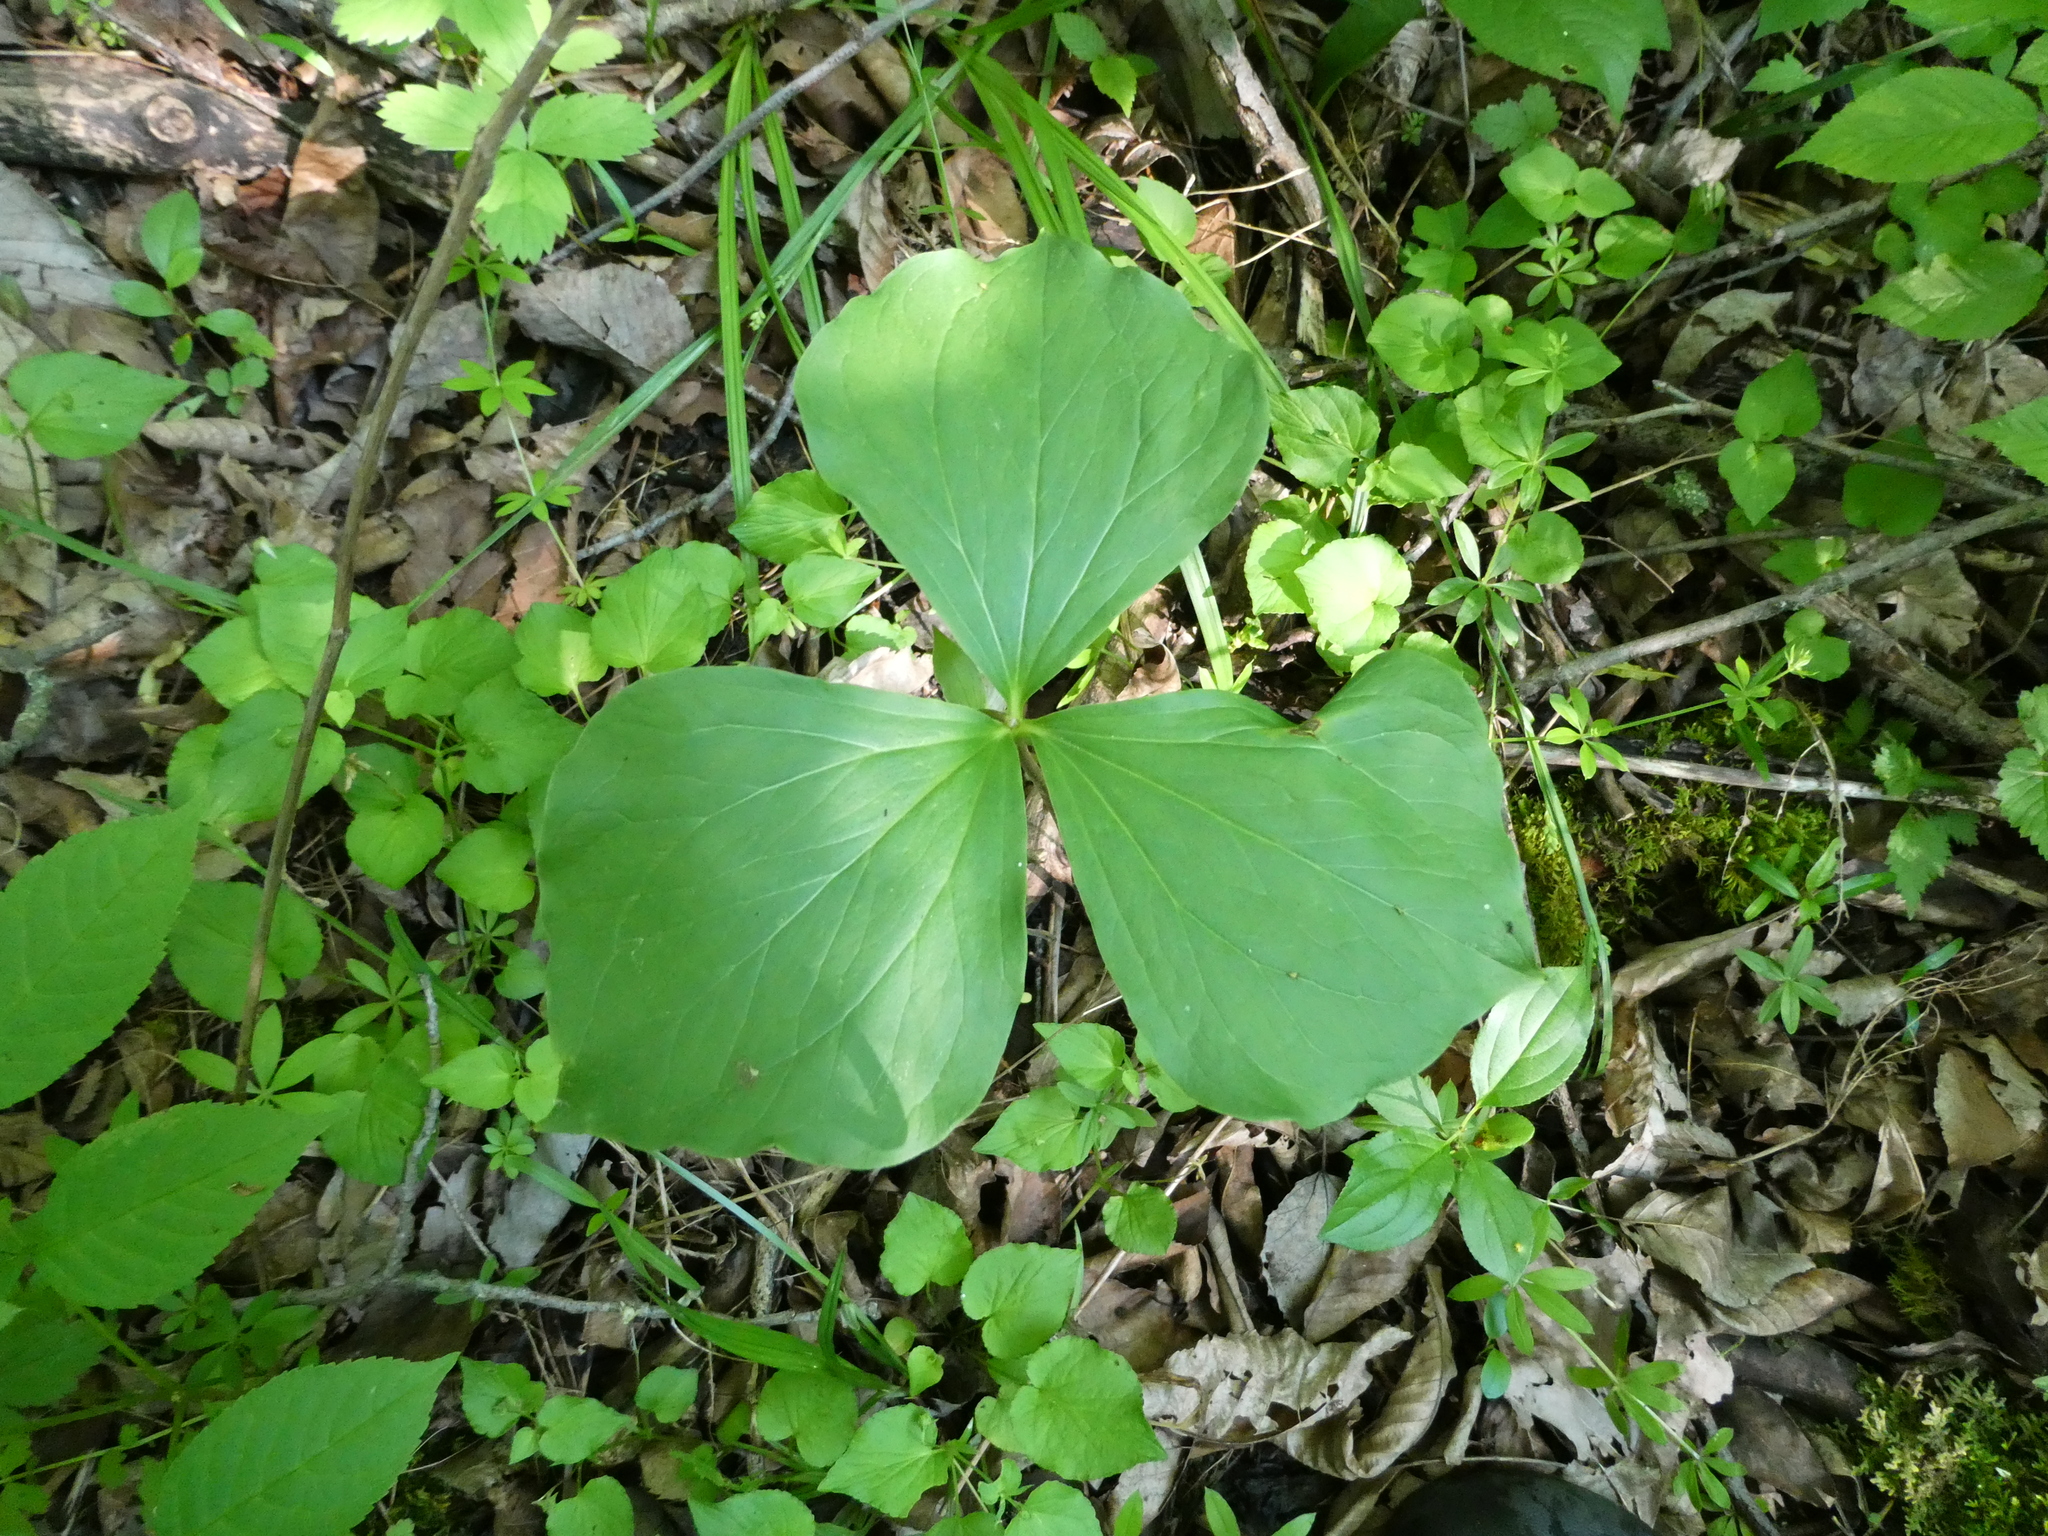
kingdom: Plantae
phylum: Tracheophyta
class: Liliopsida
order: Liliales
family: Melanthiaceae
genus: Trillium
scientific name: Trillium cernuum
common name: Nodding trillium
